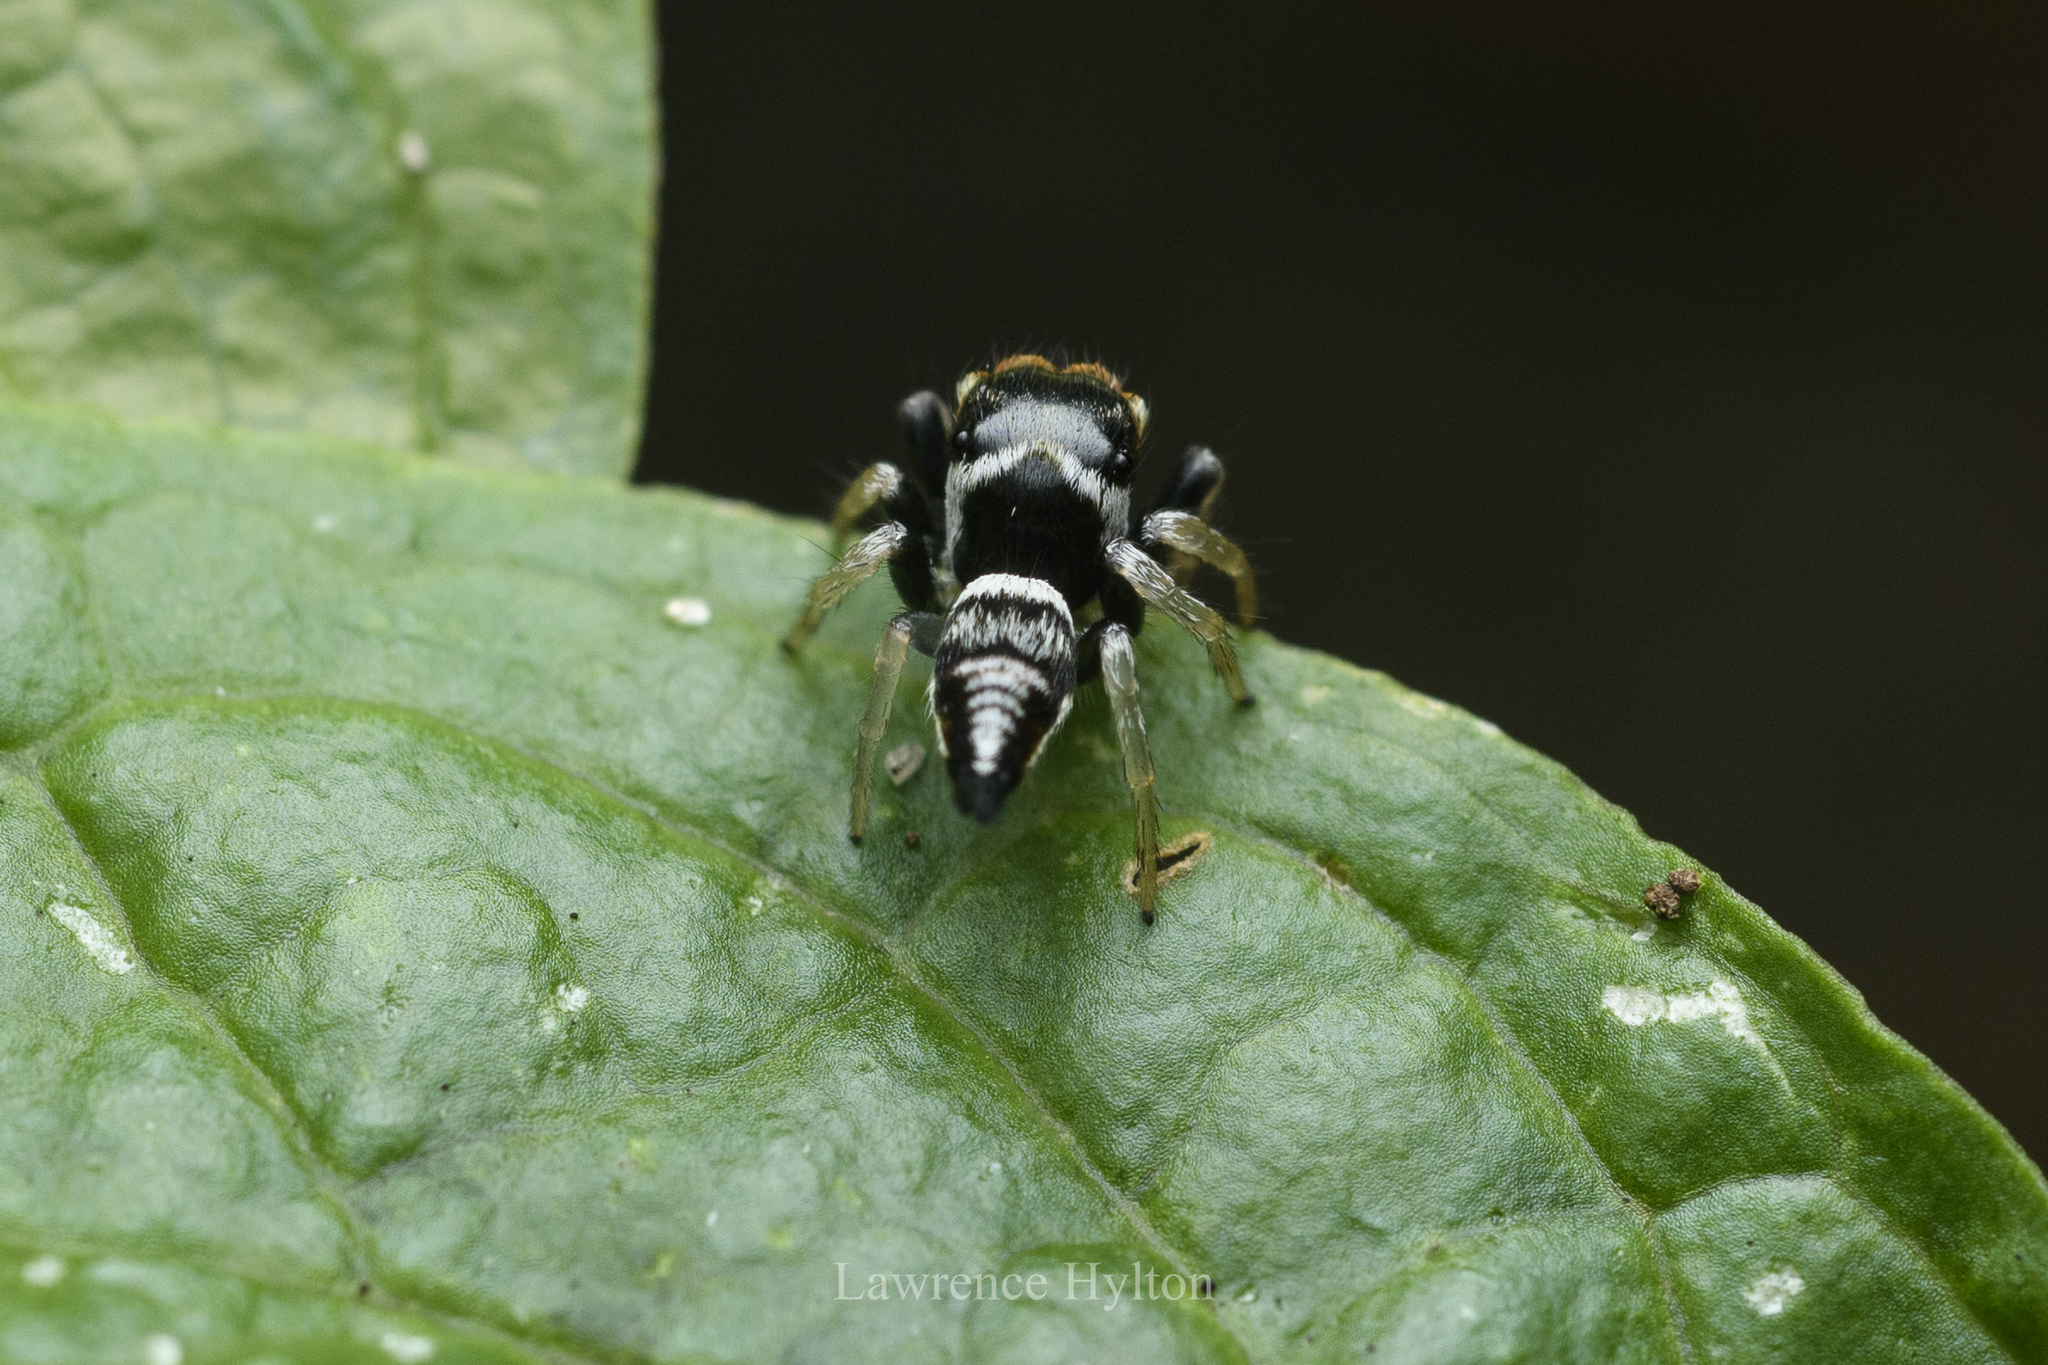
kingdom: Animalia
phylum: Arthropoda
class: Arachnida
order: Araneae
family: Salticidae
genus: Ptocasius
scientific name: Ptocasius weyersi
